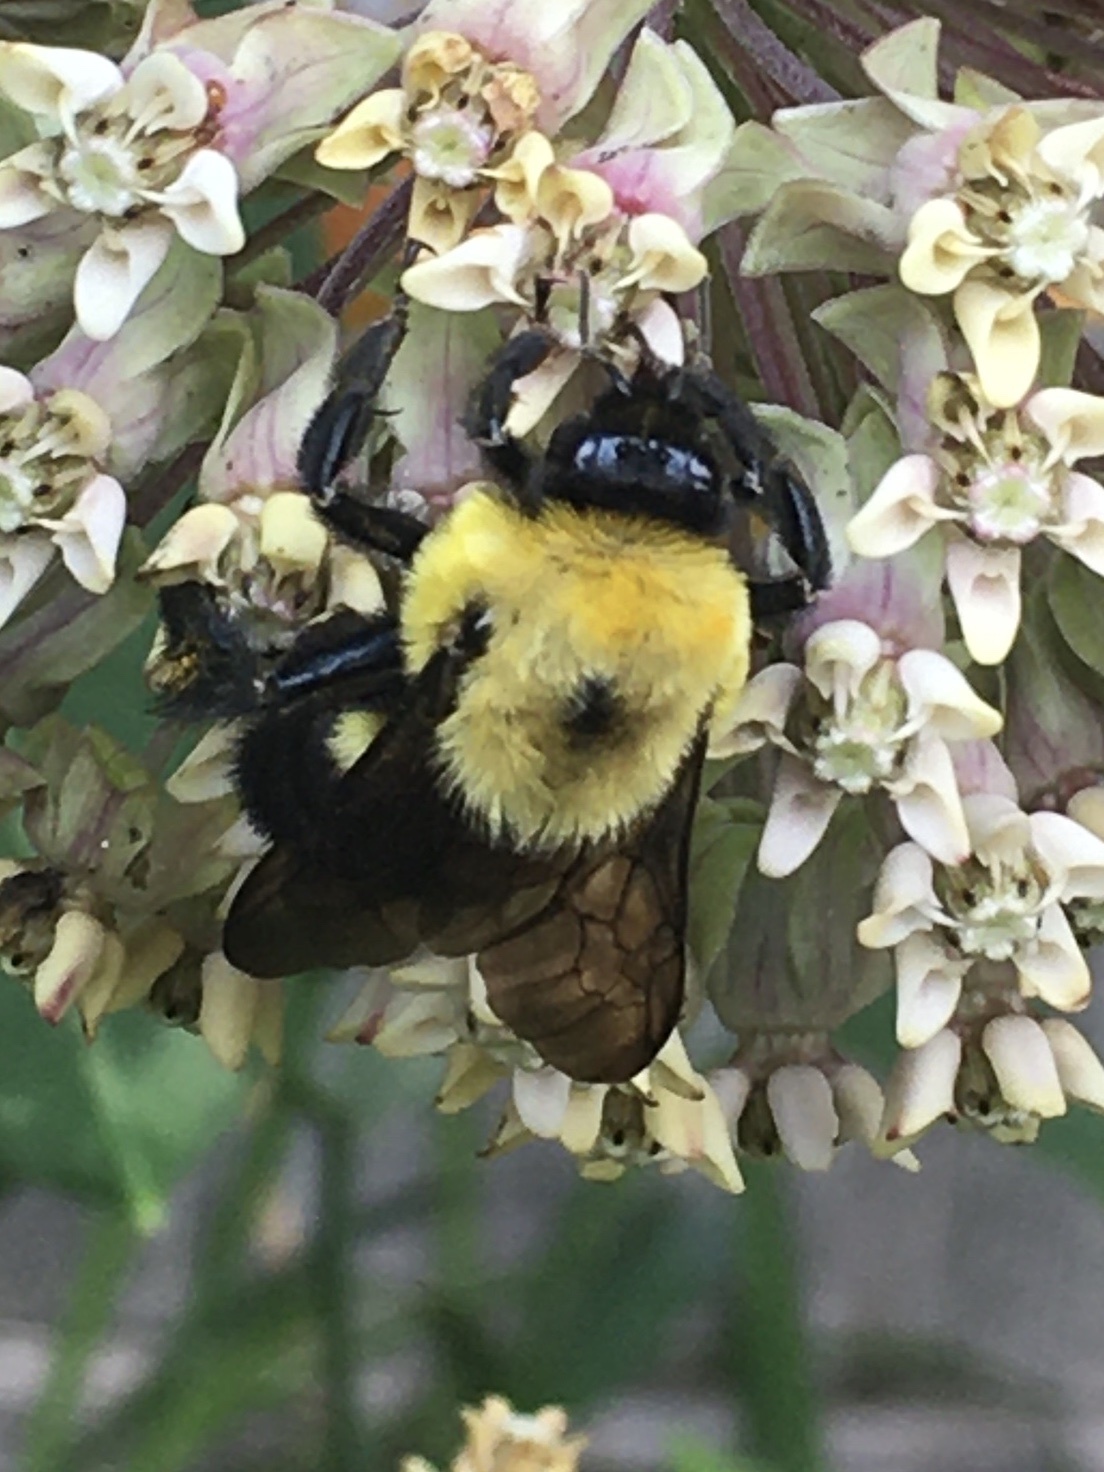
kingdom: Animalia
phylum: Arthropoda
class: Insecta
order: Hymenoptera
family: Apidae
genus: Bombus
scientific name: Bombus griseocollis
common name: Brown-belted bumble bee
